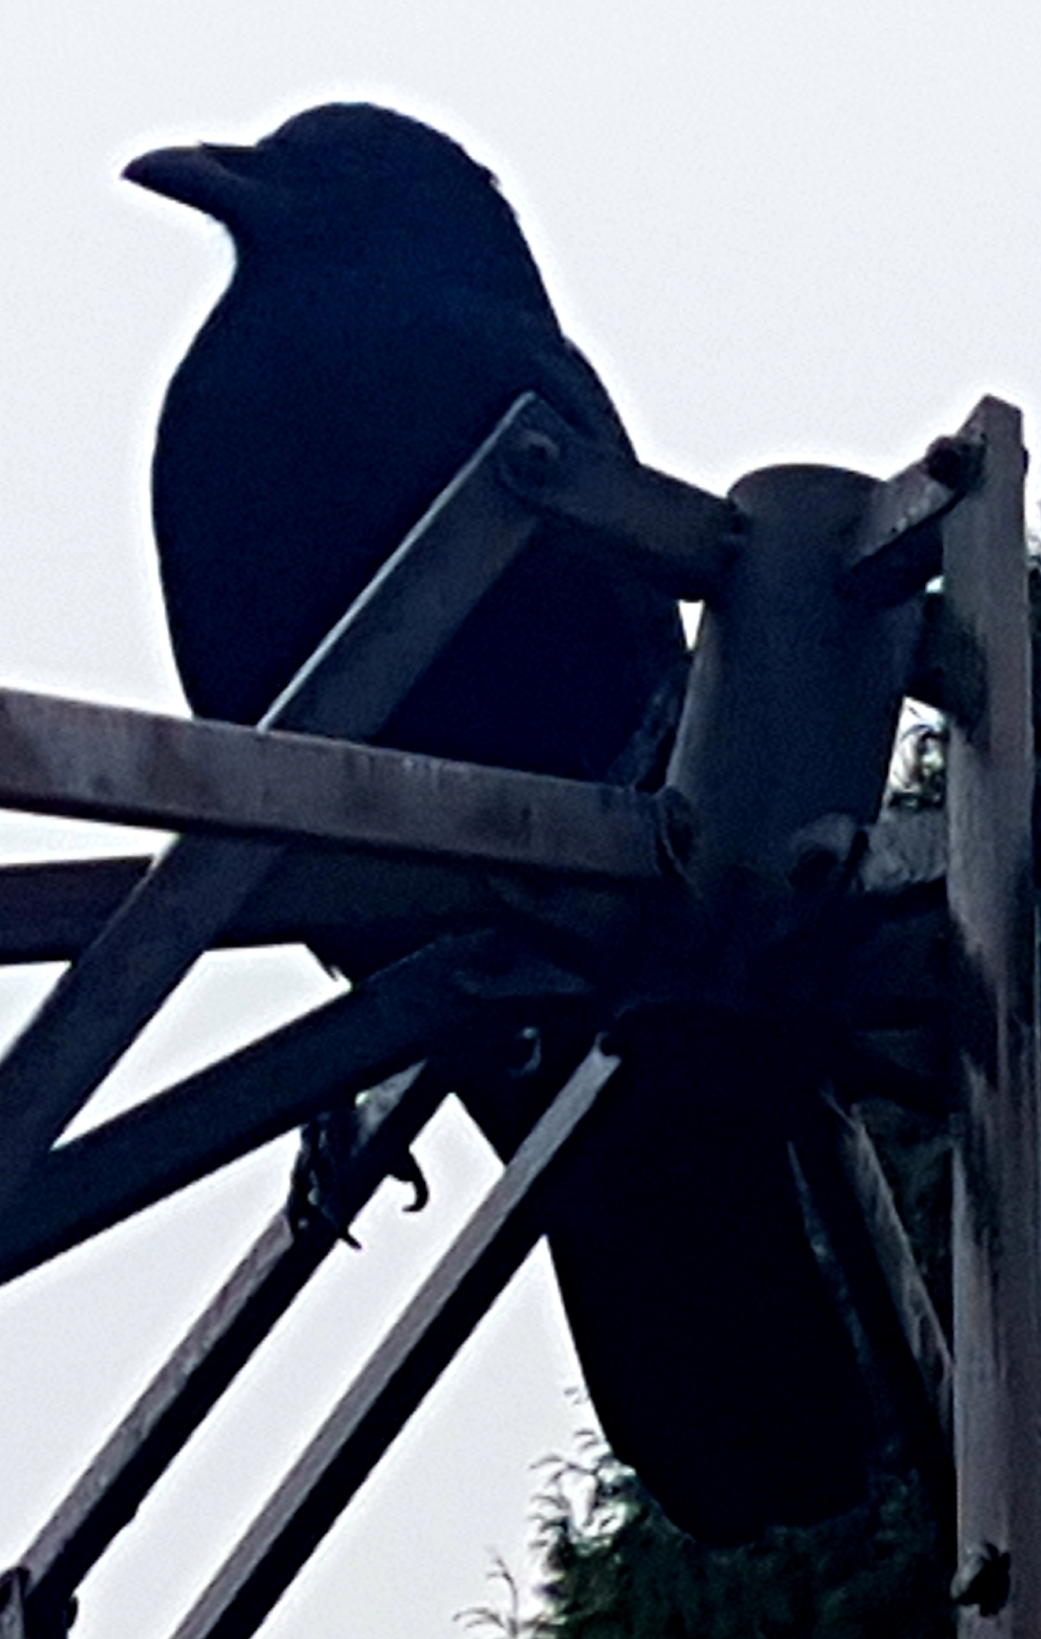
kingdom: Animalia
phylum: Chordata
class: Aves
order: Passeriformes
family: Corvidae
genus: Corvus
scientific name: Corvus brachyrhynchos
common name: American crow
